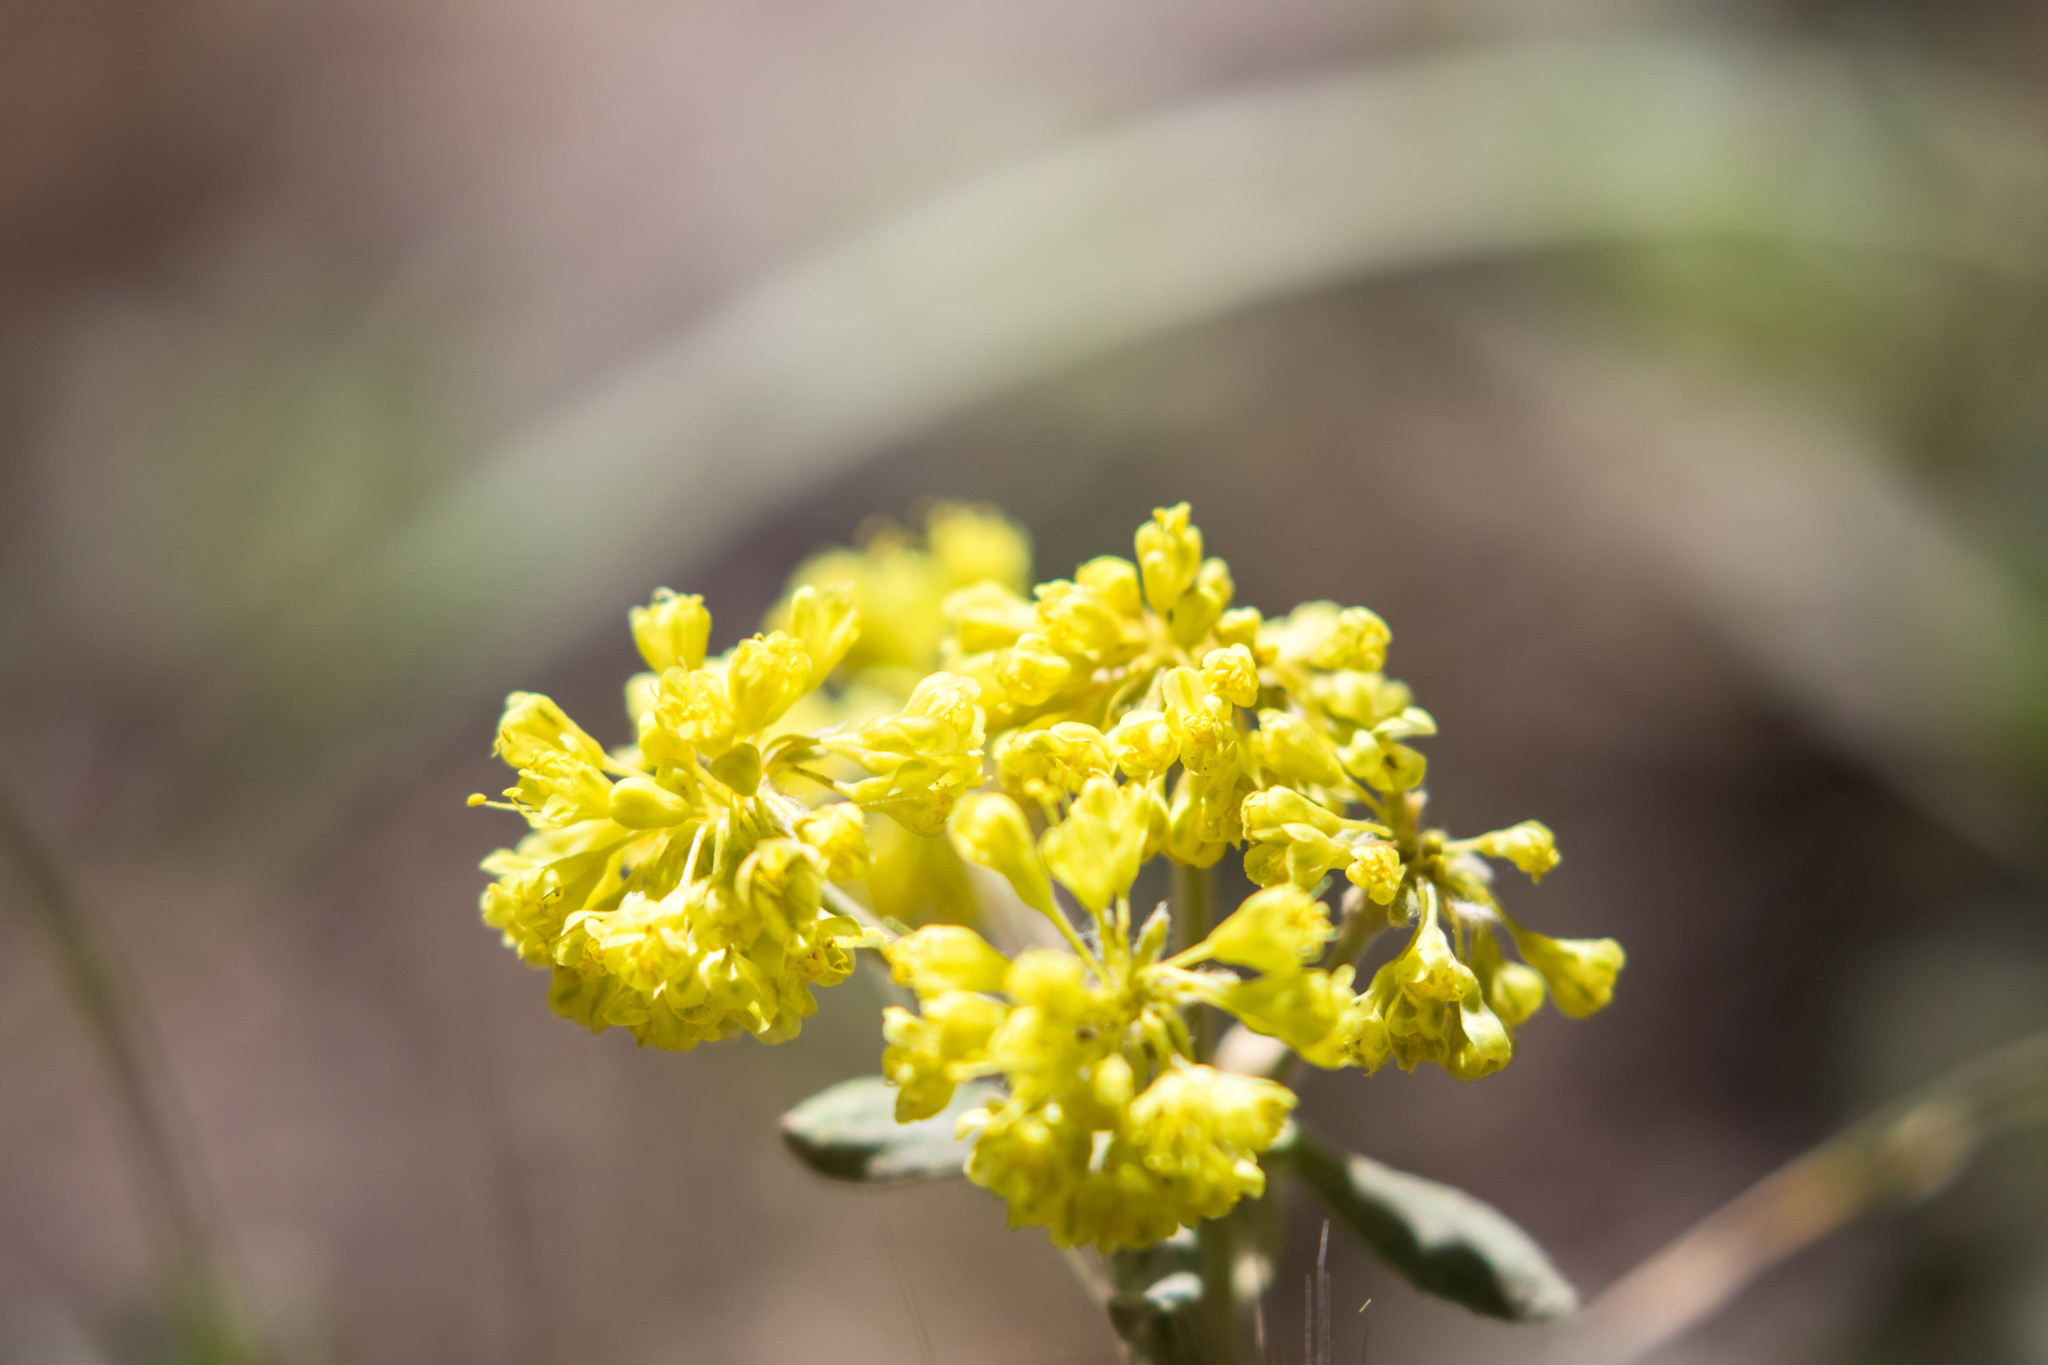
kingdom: Plantae
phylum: Tracheophyta
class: Magnoliopsida
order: Caryophyllales
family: Polygonaceae
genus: Eriogonum
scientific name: Eriogonum umbellatum
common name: Sulfur-buckwheat
